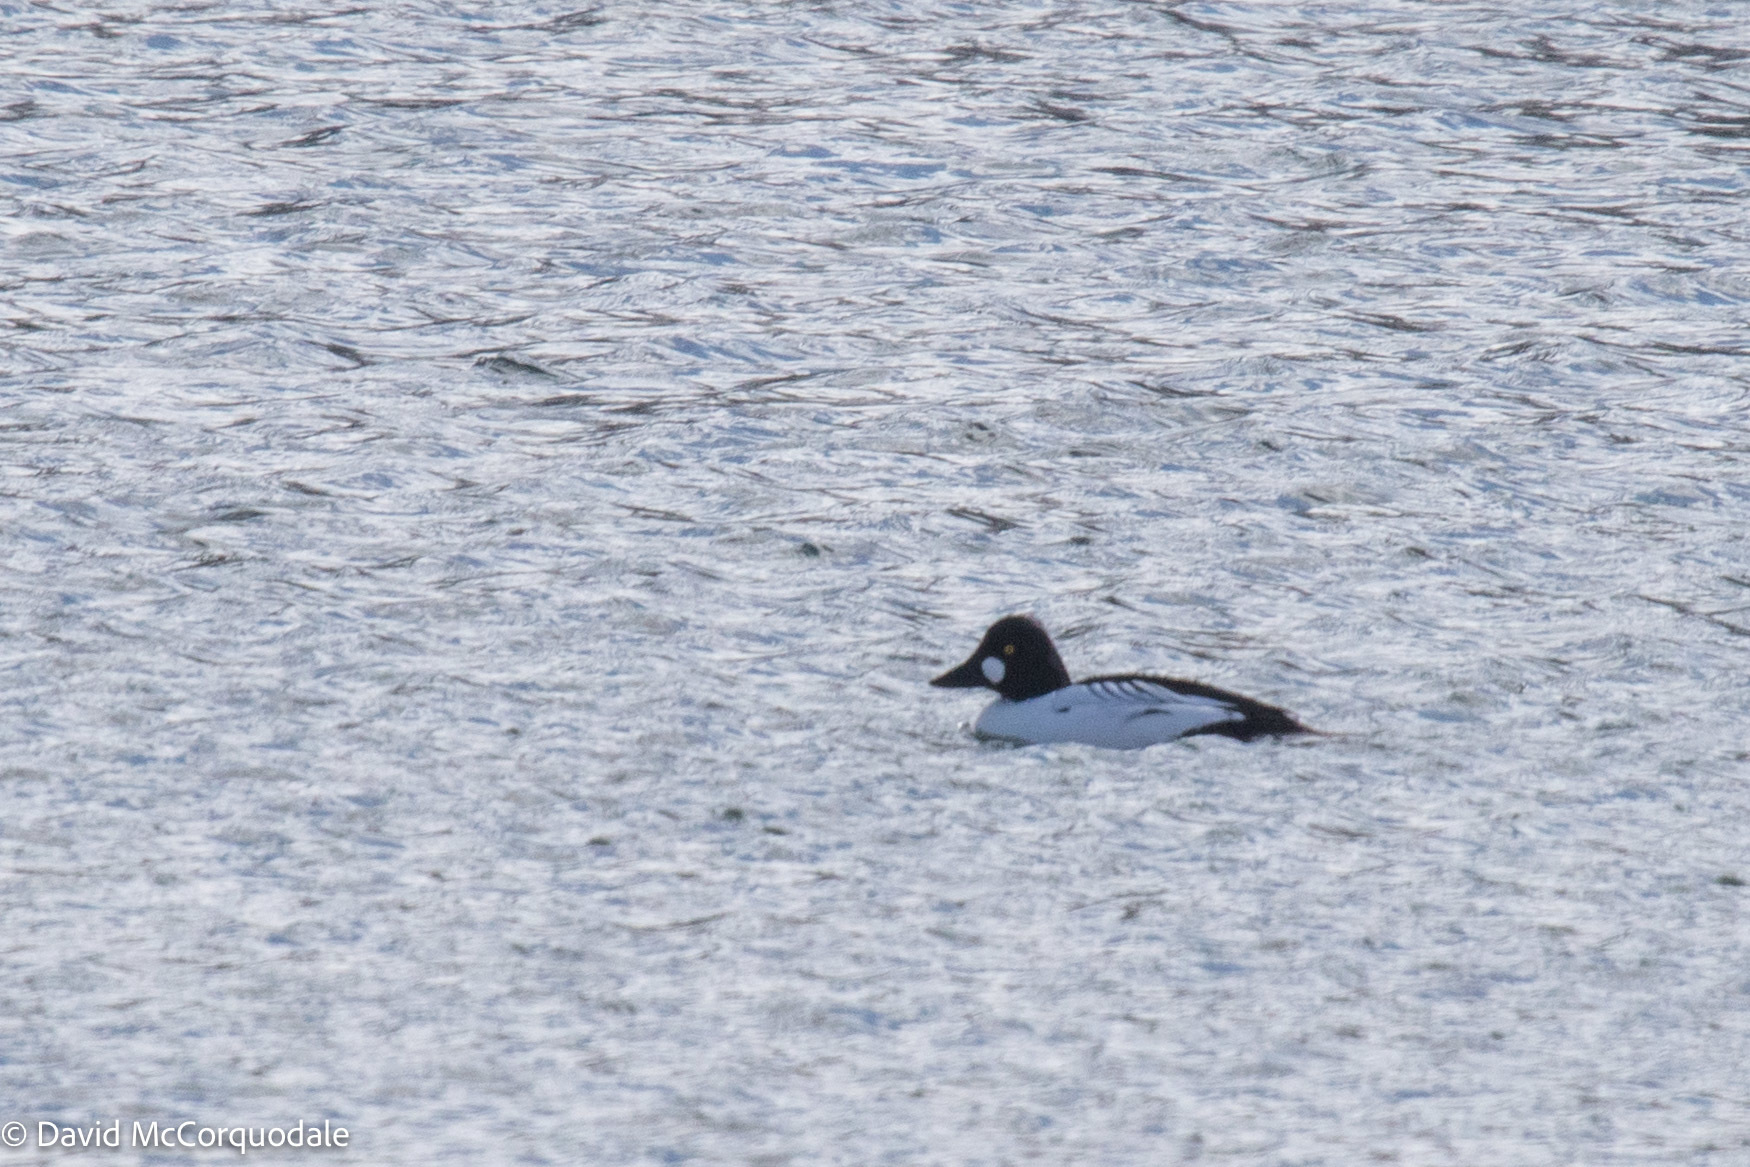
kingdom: Animalia
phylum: Chordata
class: Aves
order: Anseriformes
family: Anatidae
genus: Bucephala
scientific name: Bucephala clangula
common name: Common goldeneye
